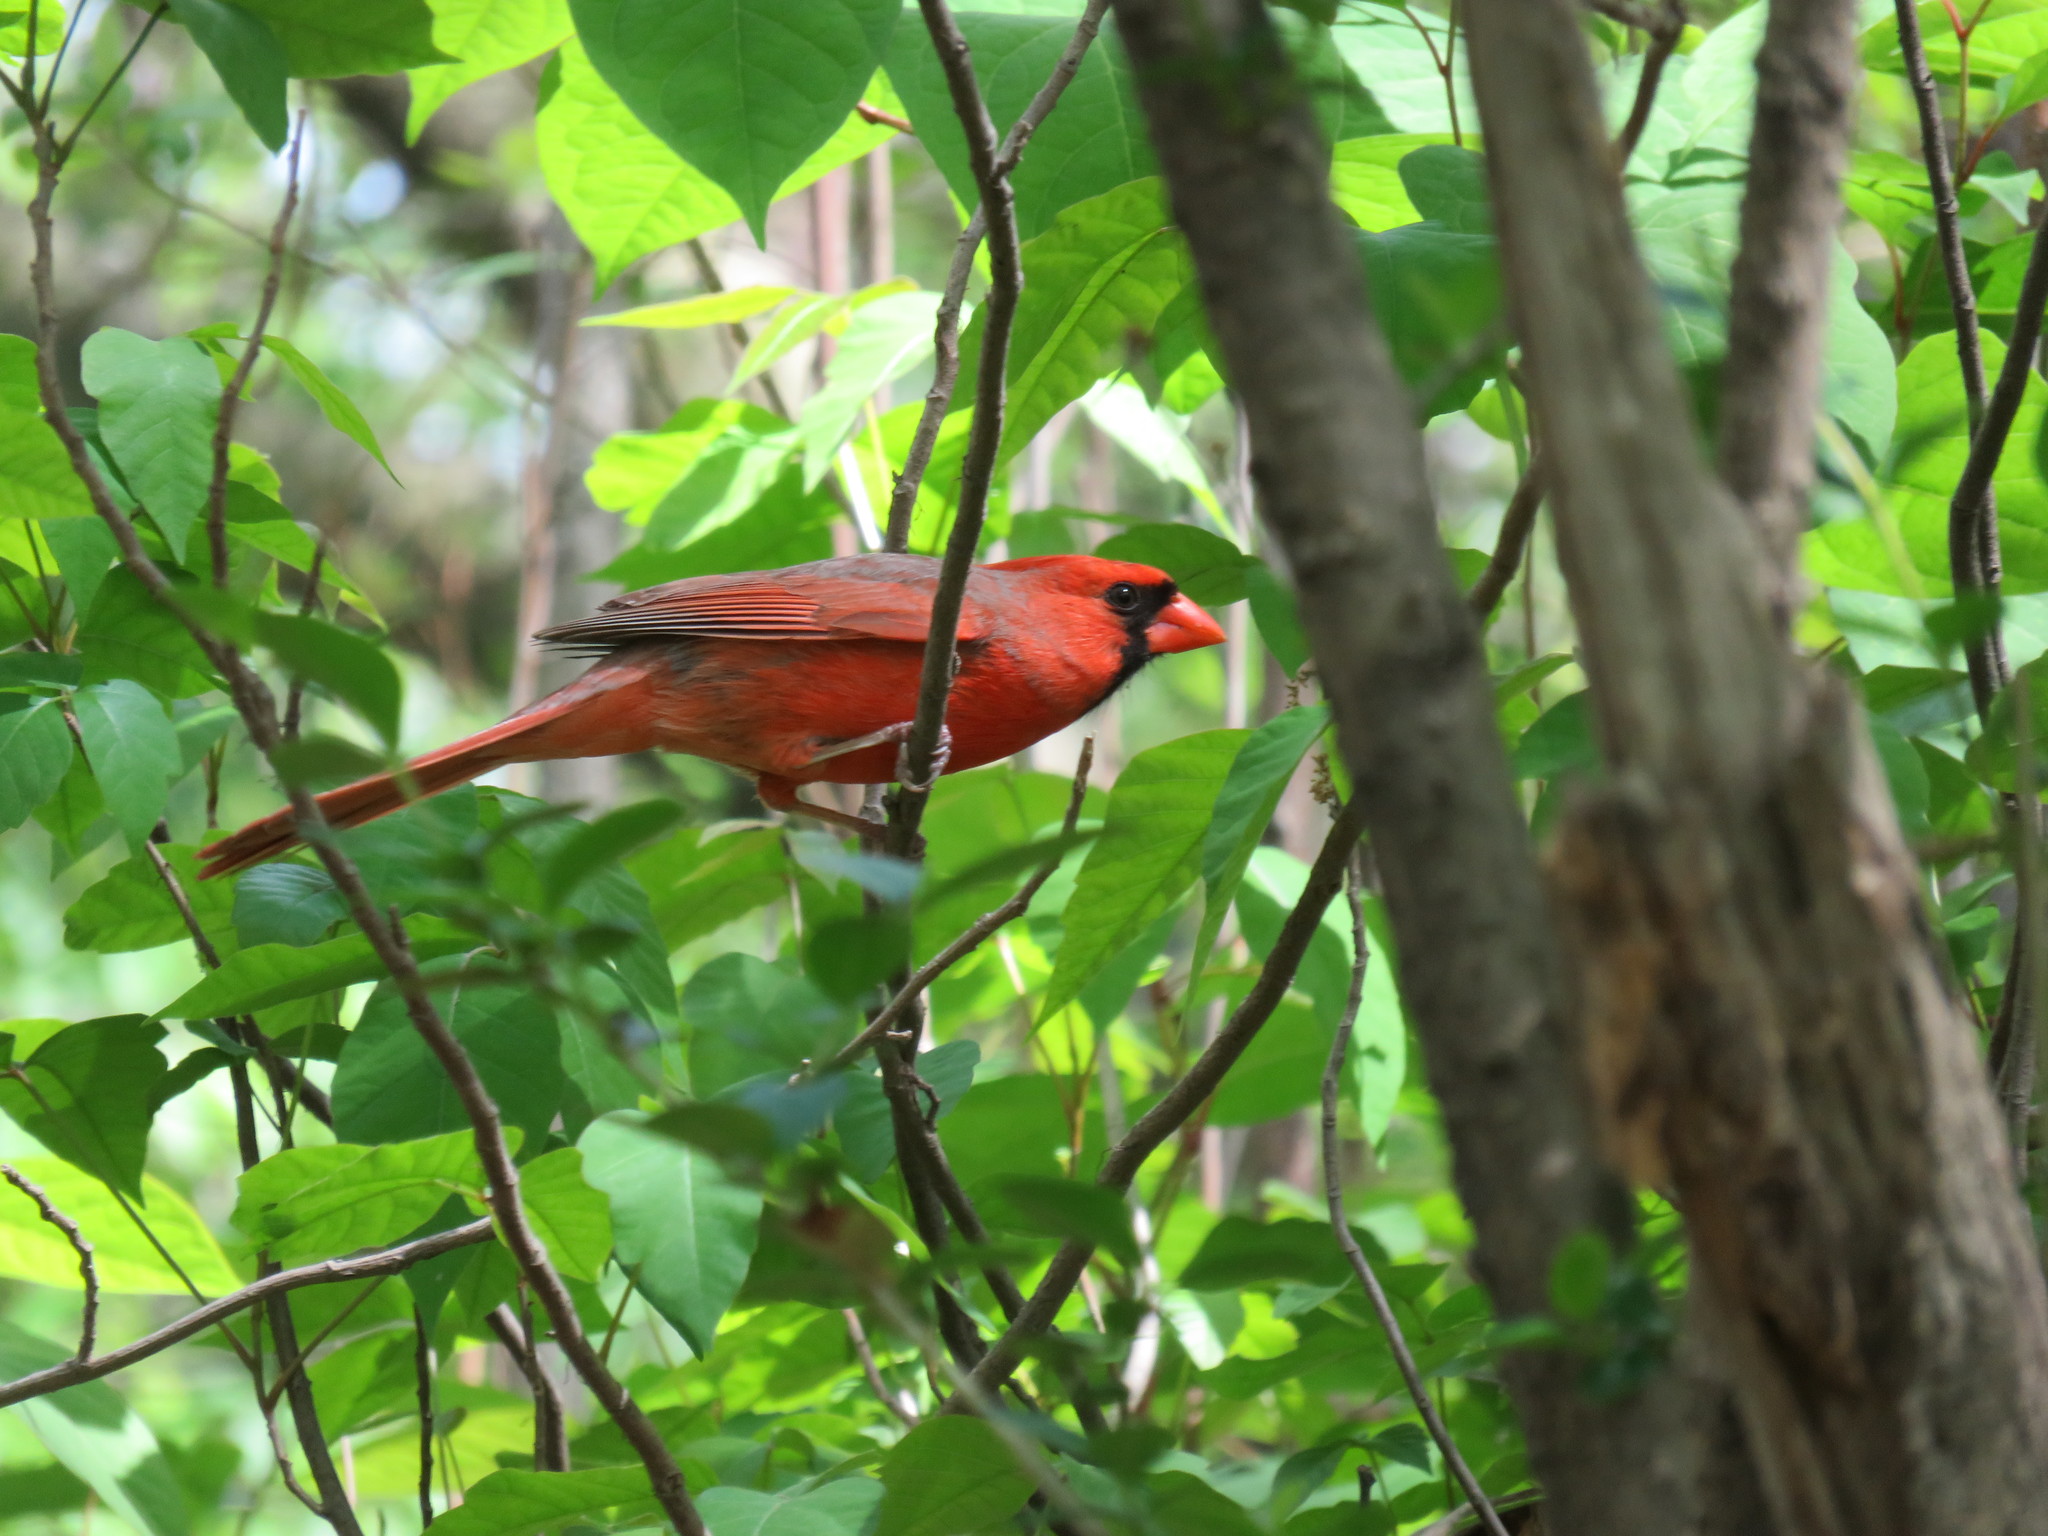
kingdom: Animalia
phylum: Chordata
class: Aves
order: Passeriformes
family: Cardinalidae
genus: Cardinalis
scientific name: Cardinalis cardinalis
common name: Northern cardinal
